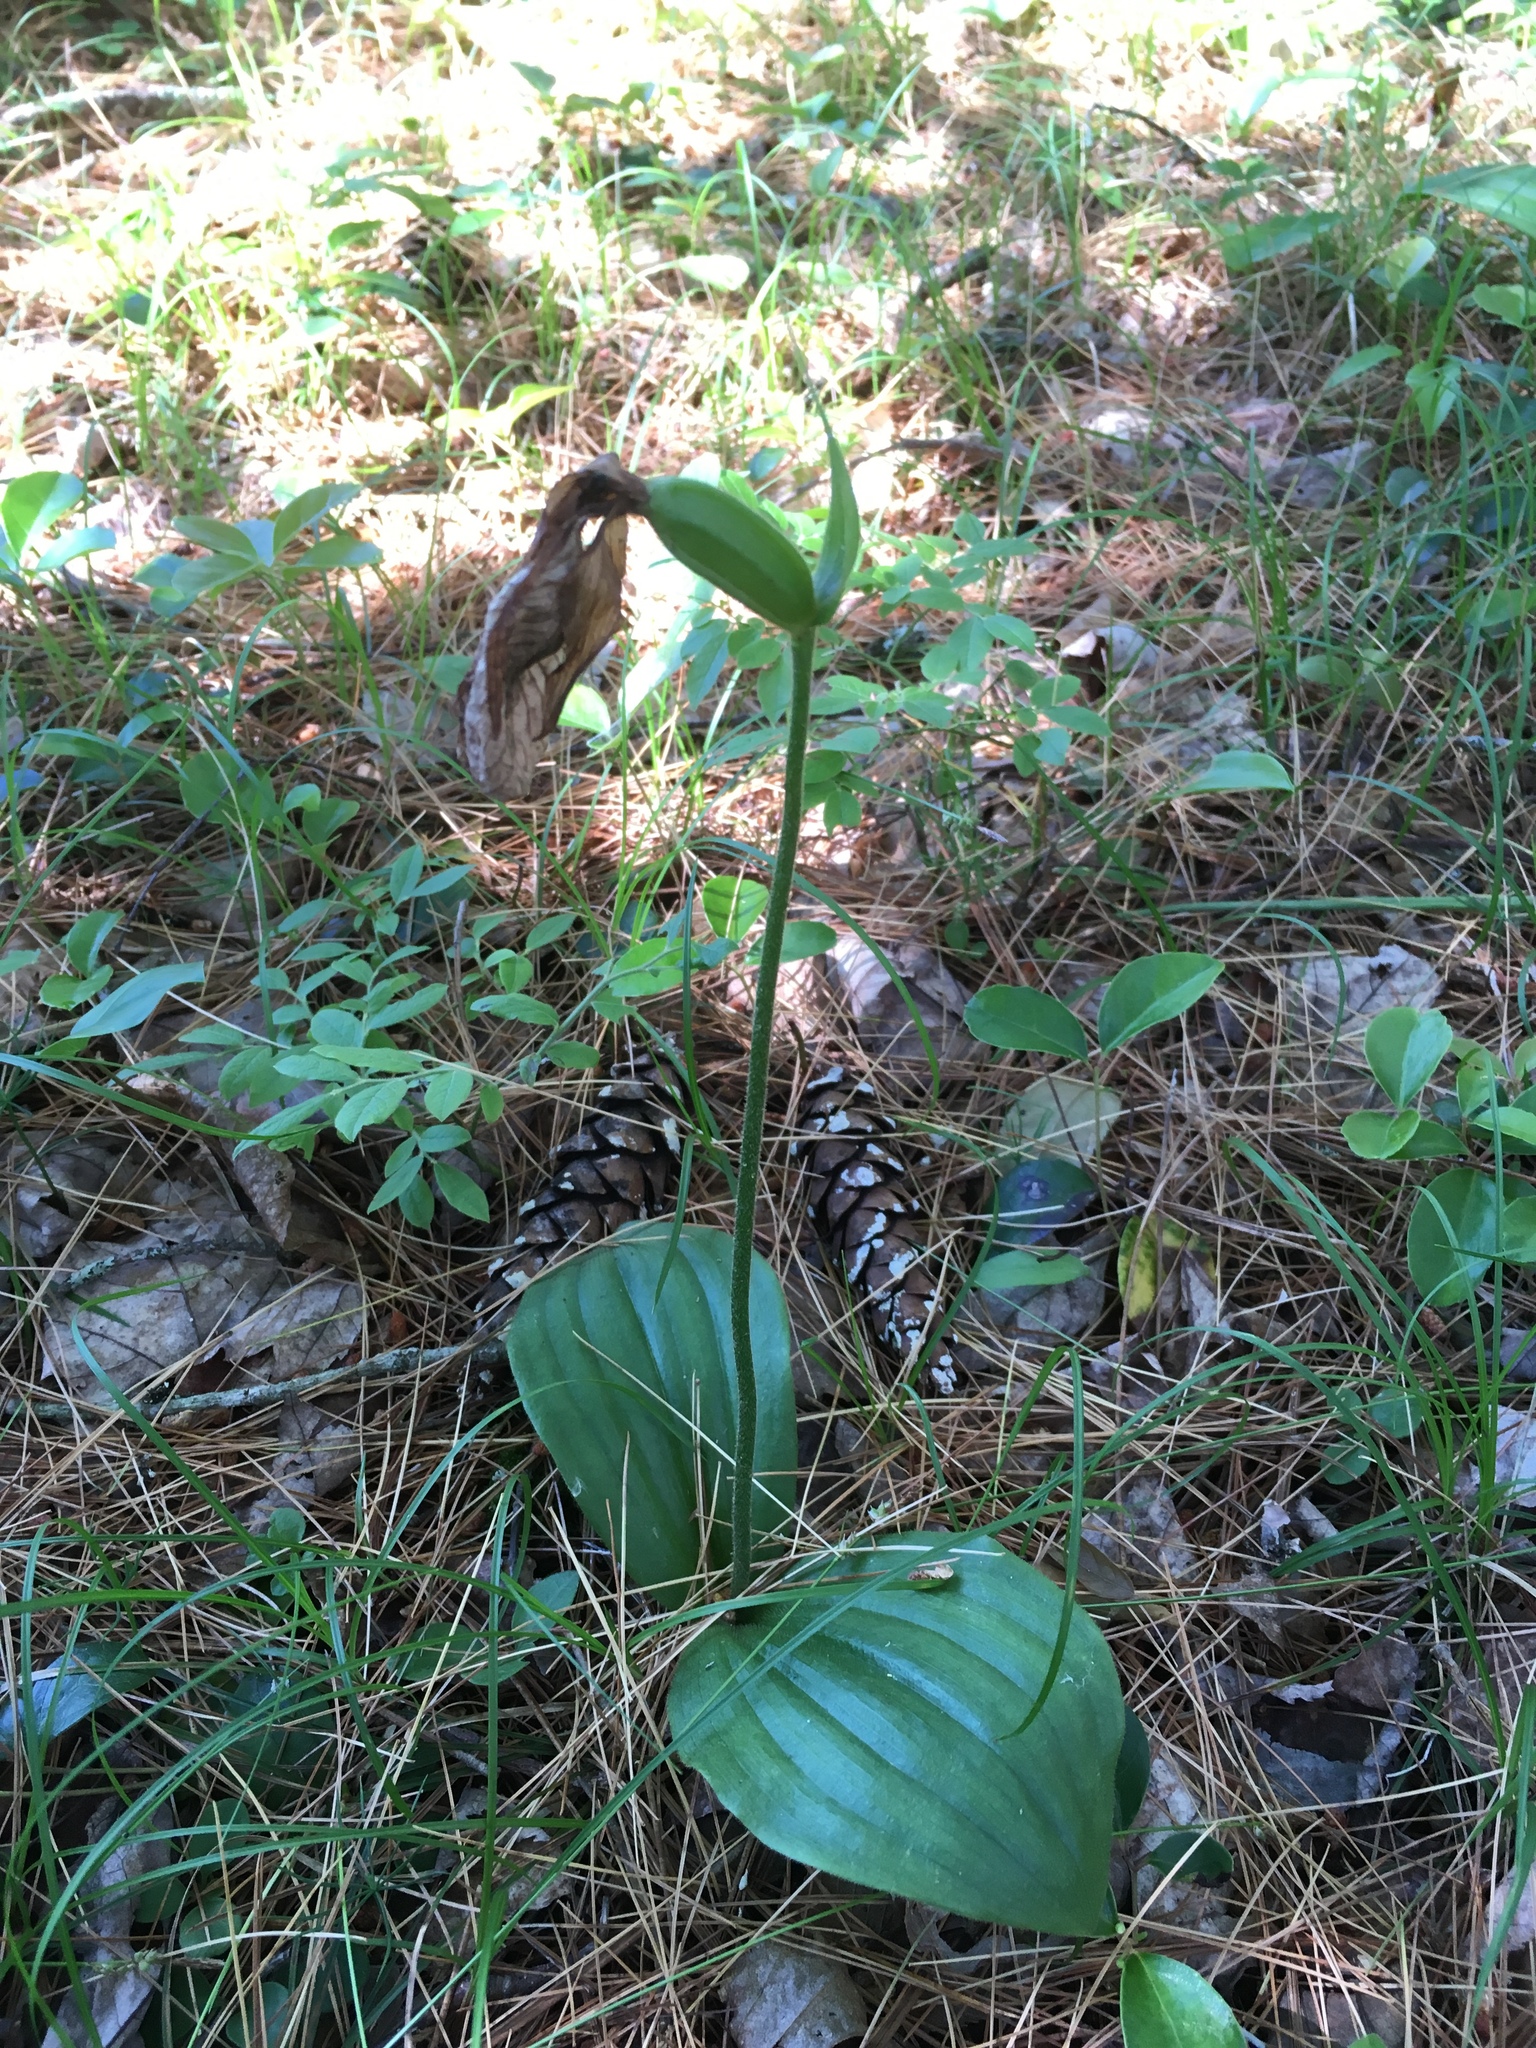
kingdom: Plantae
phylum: Tracheophyta
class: Liliopsida
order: Asparagales
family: Orchidaceae
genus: Cypripedium
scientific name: Cypripedium acaule
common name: Pink lady's-slipper
